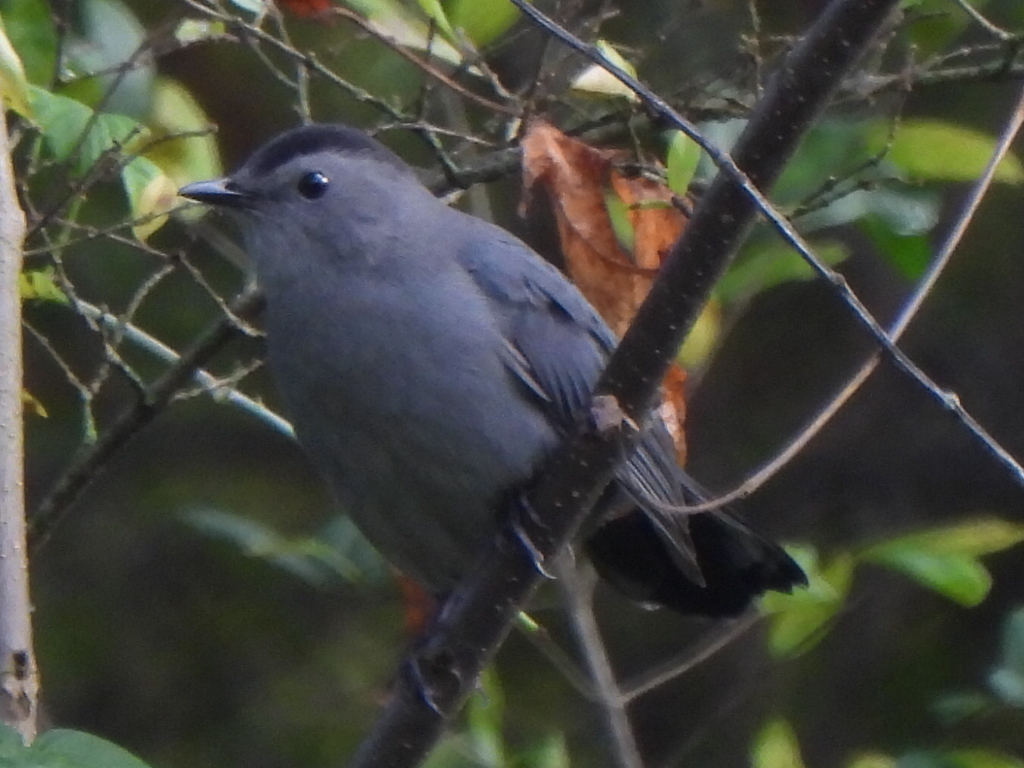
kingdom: Animalia
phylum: Chordata
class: Aves
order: Passeriformes
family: Mimidae
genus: Dumetella
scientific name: Dumetella carolinensis
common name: Gray catbird
